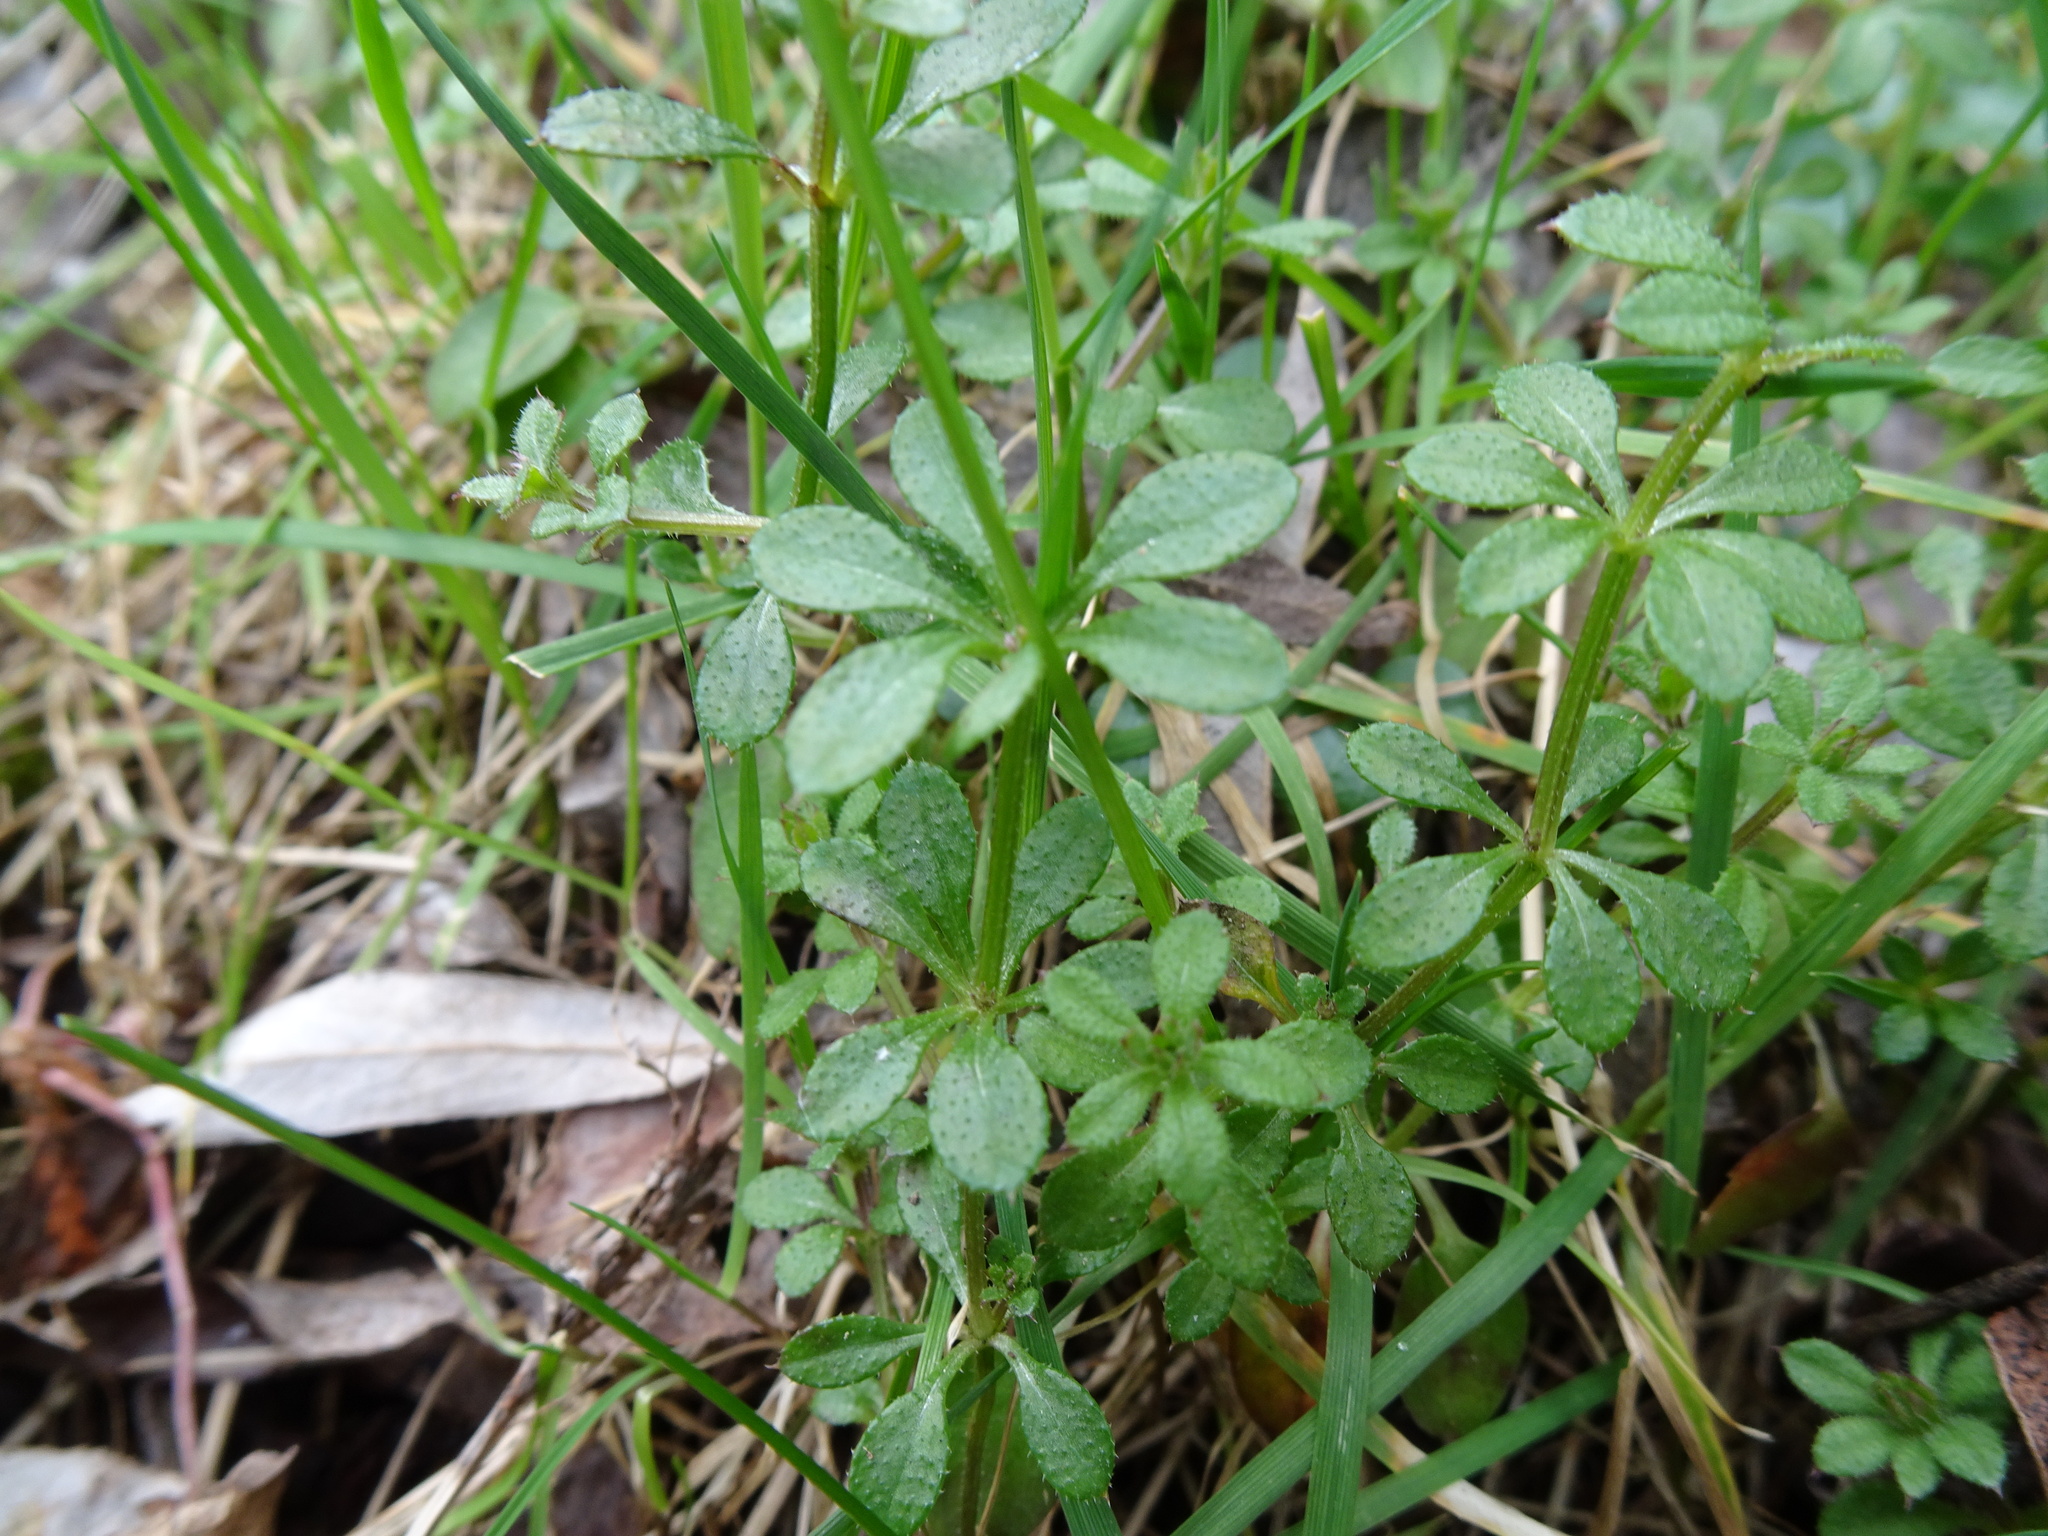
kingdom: Plantae
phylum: Tracheophyta
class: Magnoliopsida
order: Gentianales
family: Rubiaceae
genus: Galium
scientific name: Galium aparine
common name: Cleavers
